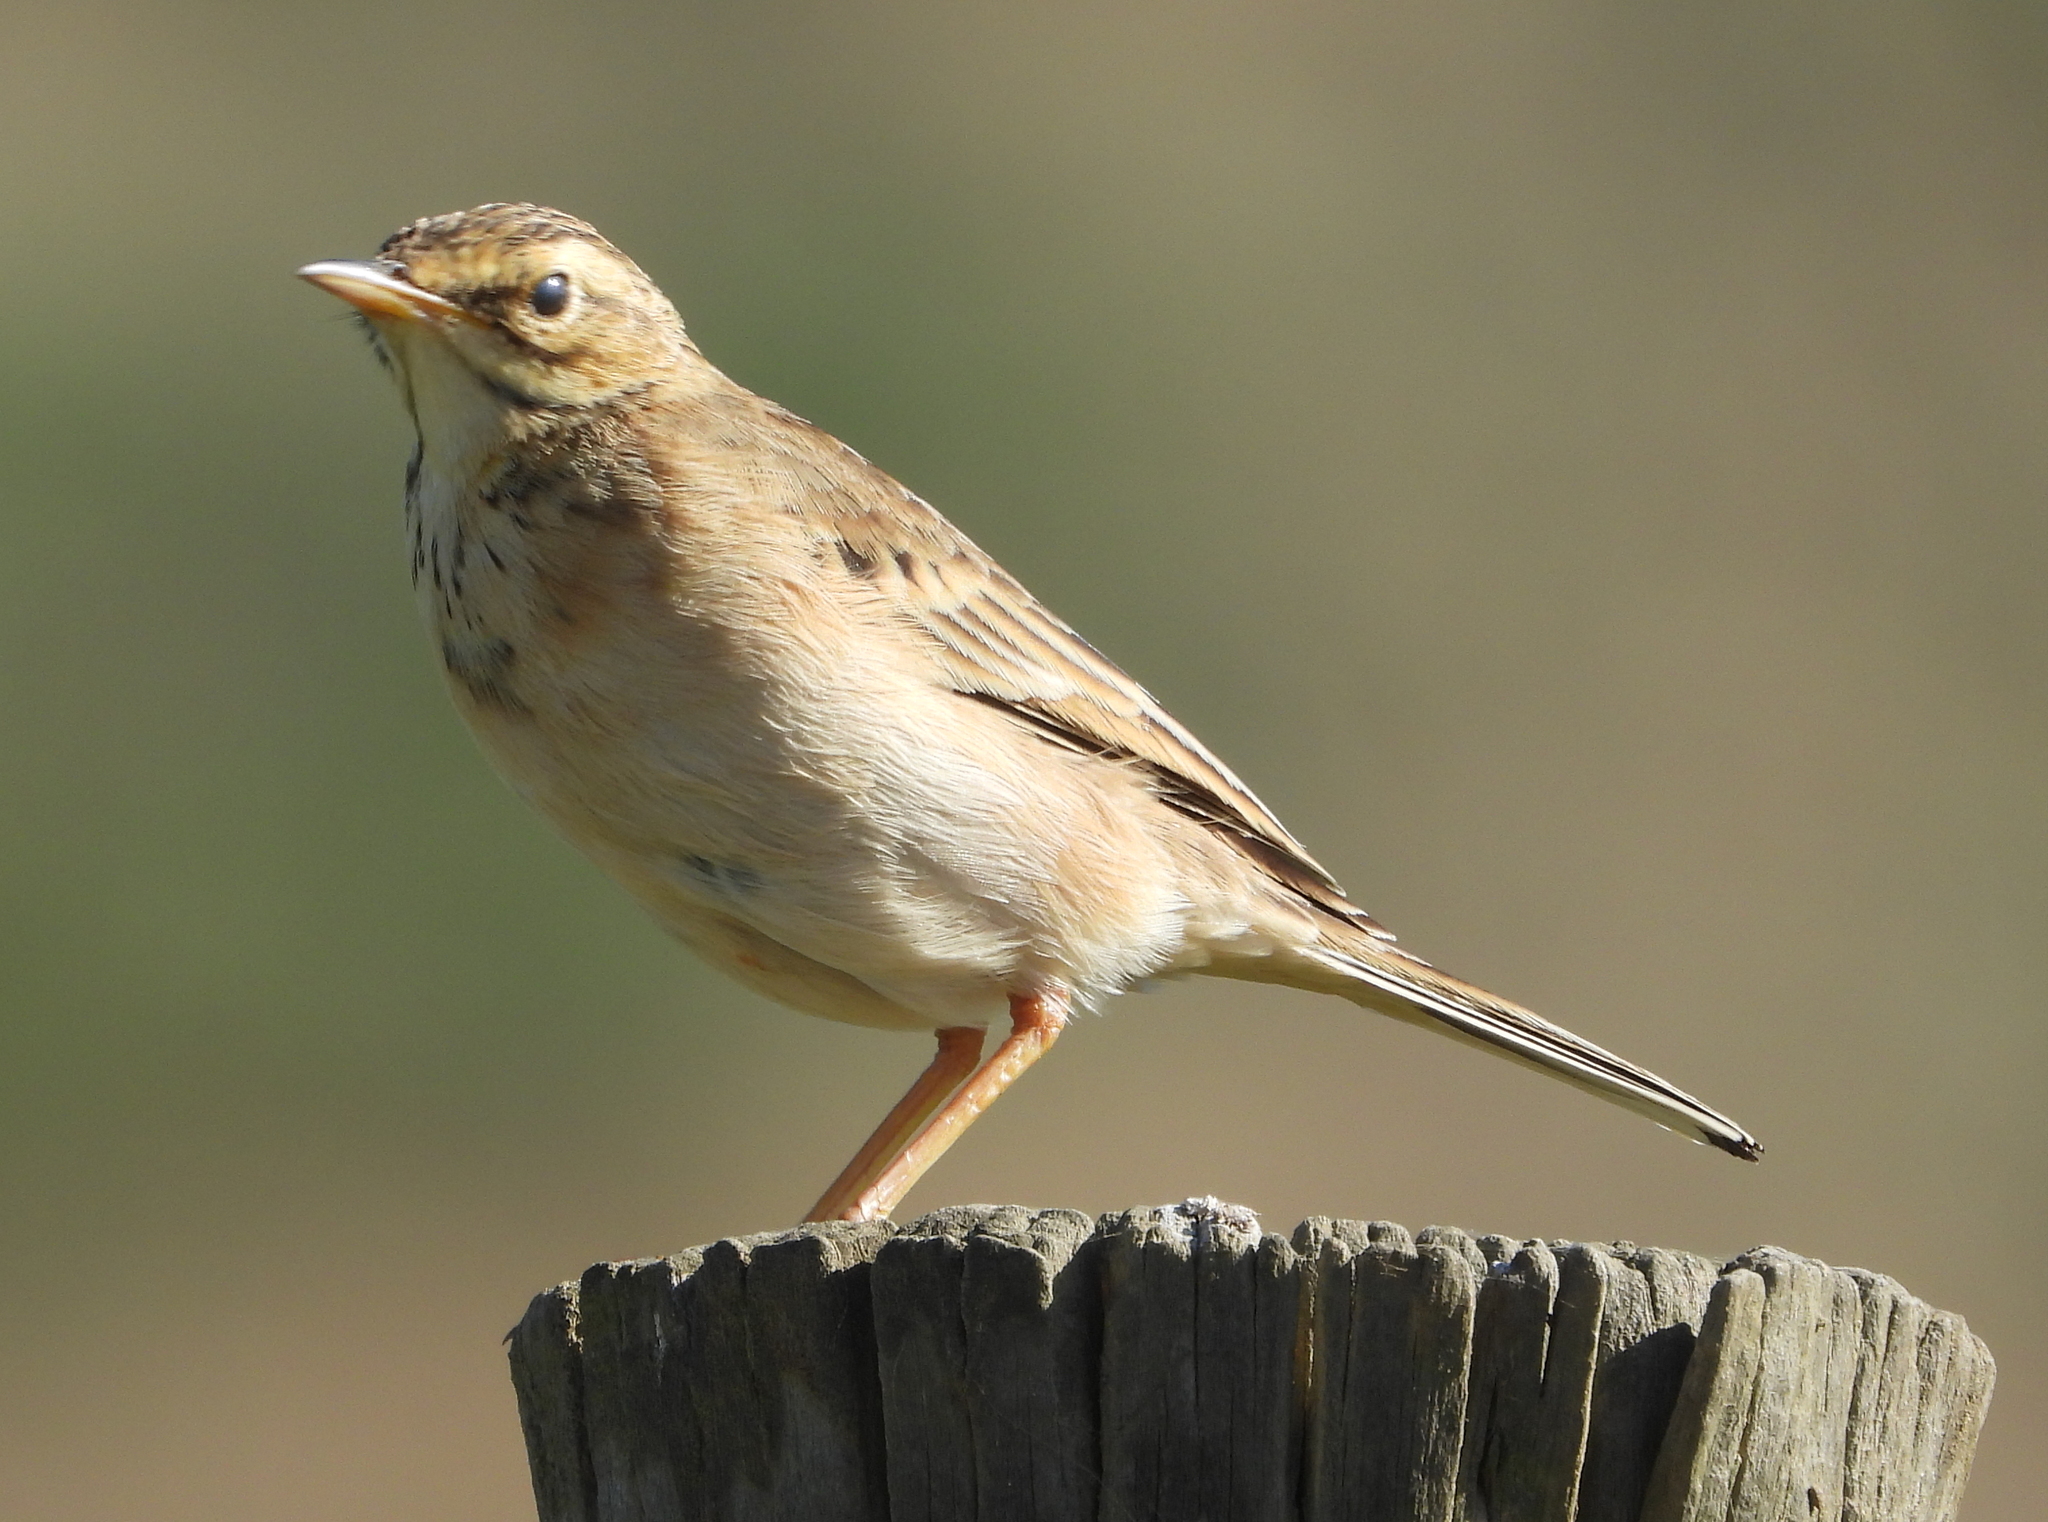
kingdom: Animalia
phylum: Chordata
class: Aves
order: Passeriformes
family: Motacillidae
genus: Anthus
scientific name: Anthus cinnamomeus
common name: African pipit
